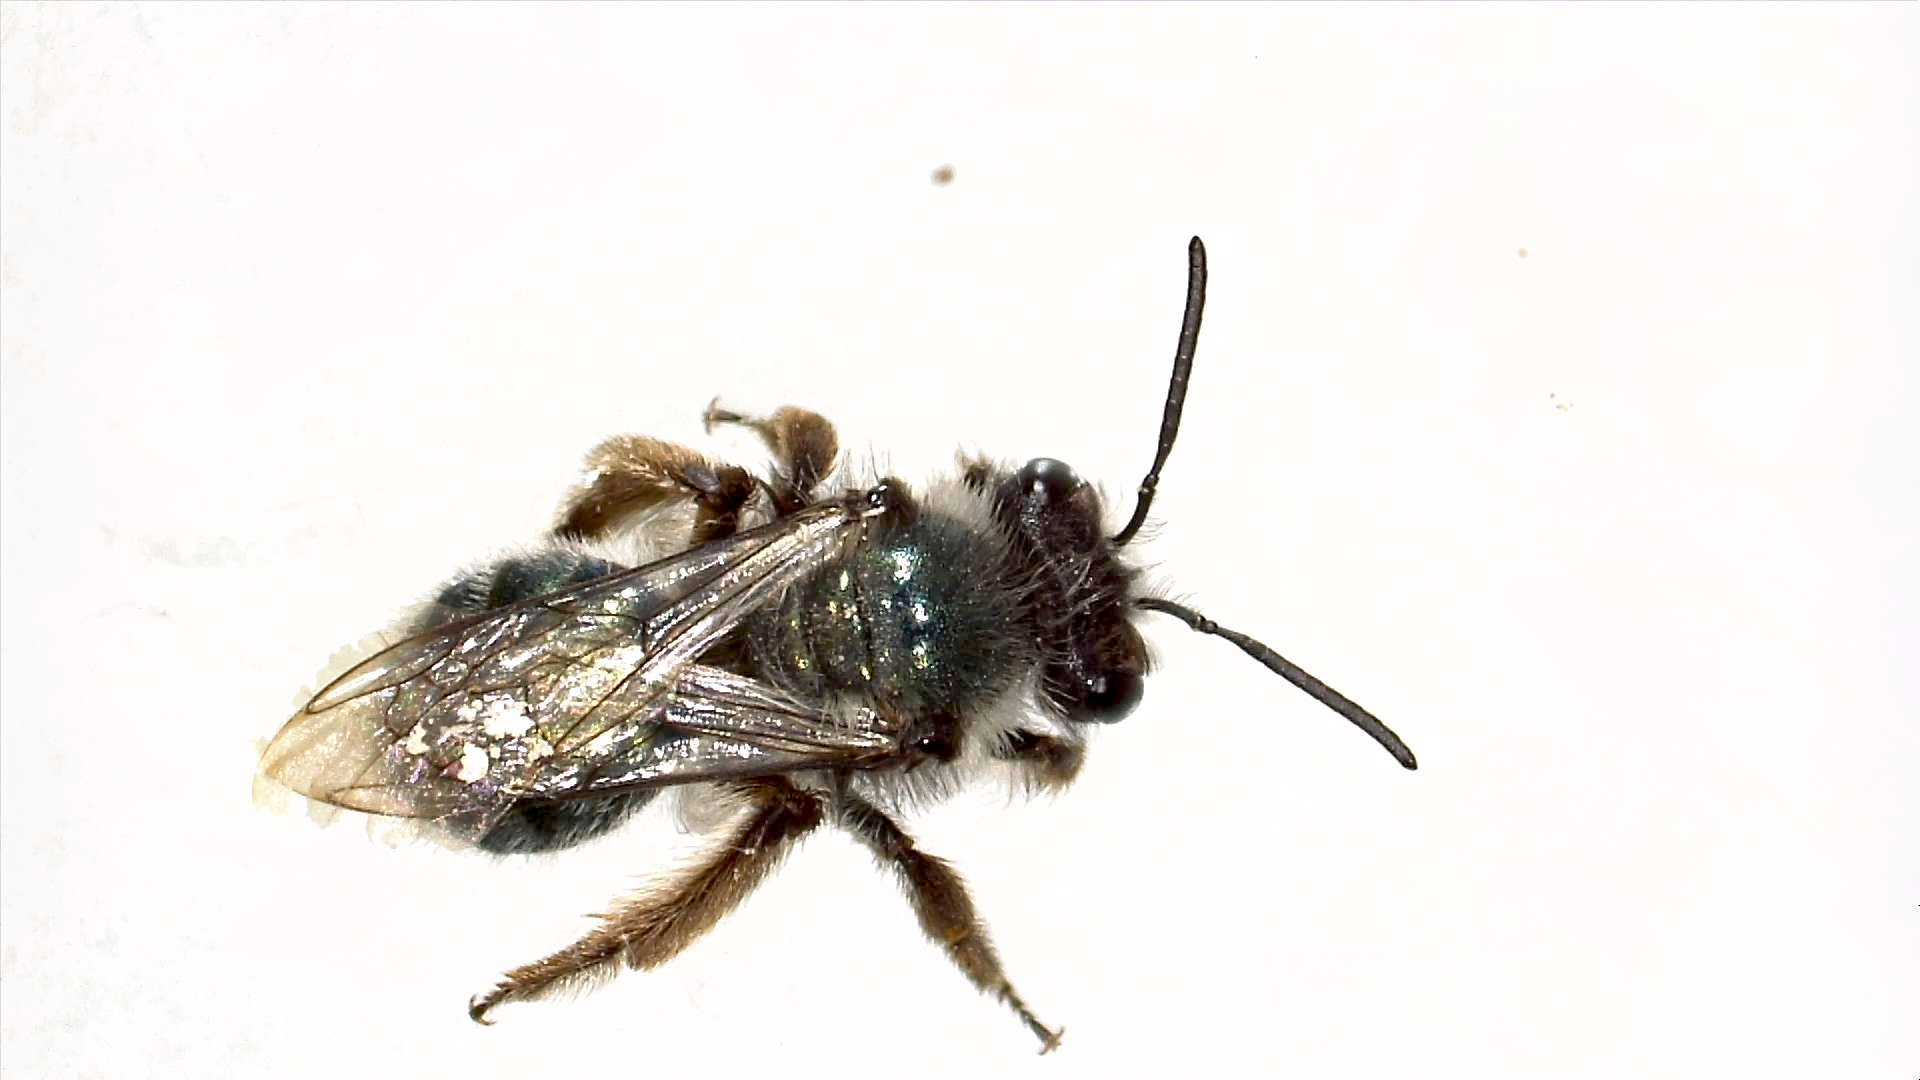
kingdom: Animalia
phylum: Arthropoda
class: Insecta
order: Hymenoptera
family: Andrenidae
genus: Andrena
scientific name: Andrena cerasifolii
